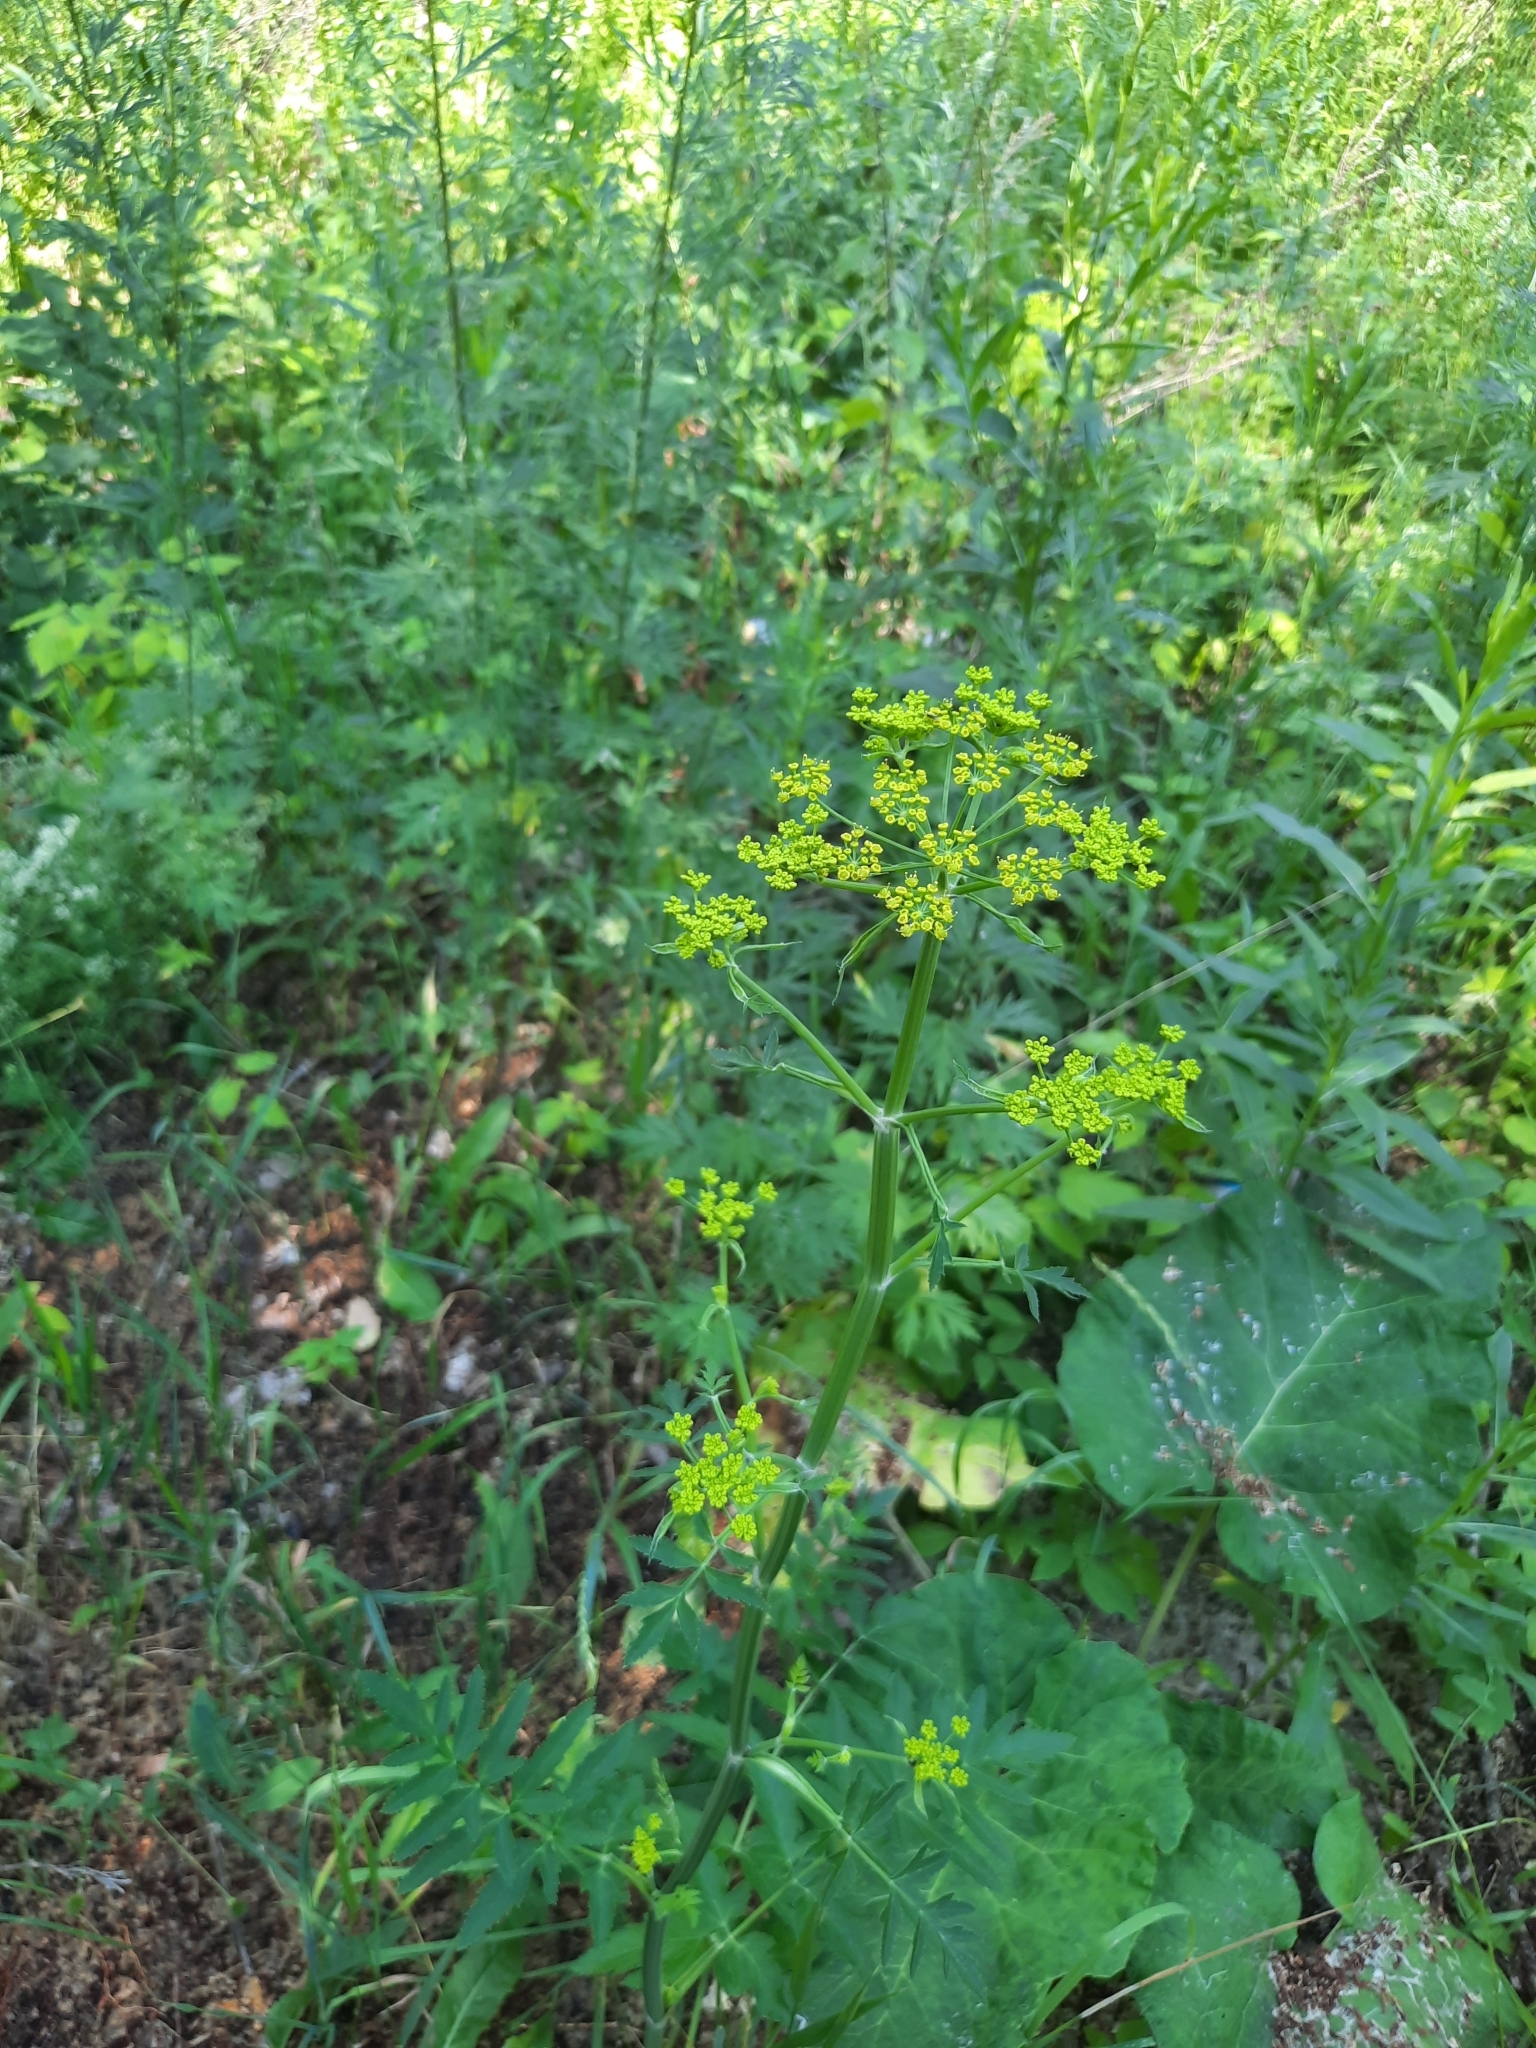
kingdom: Plantae
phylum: Tracheophyta
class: Magnoliopsida
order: Apiales
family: Apiaceae
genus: Pastinaca
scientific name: Pastinaca sativa
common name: Wild parsnip
